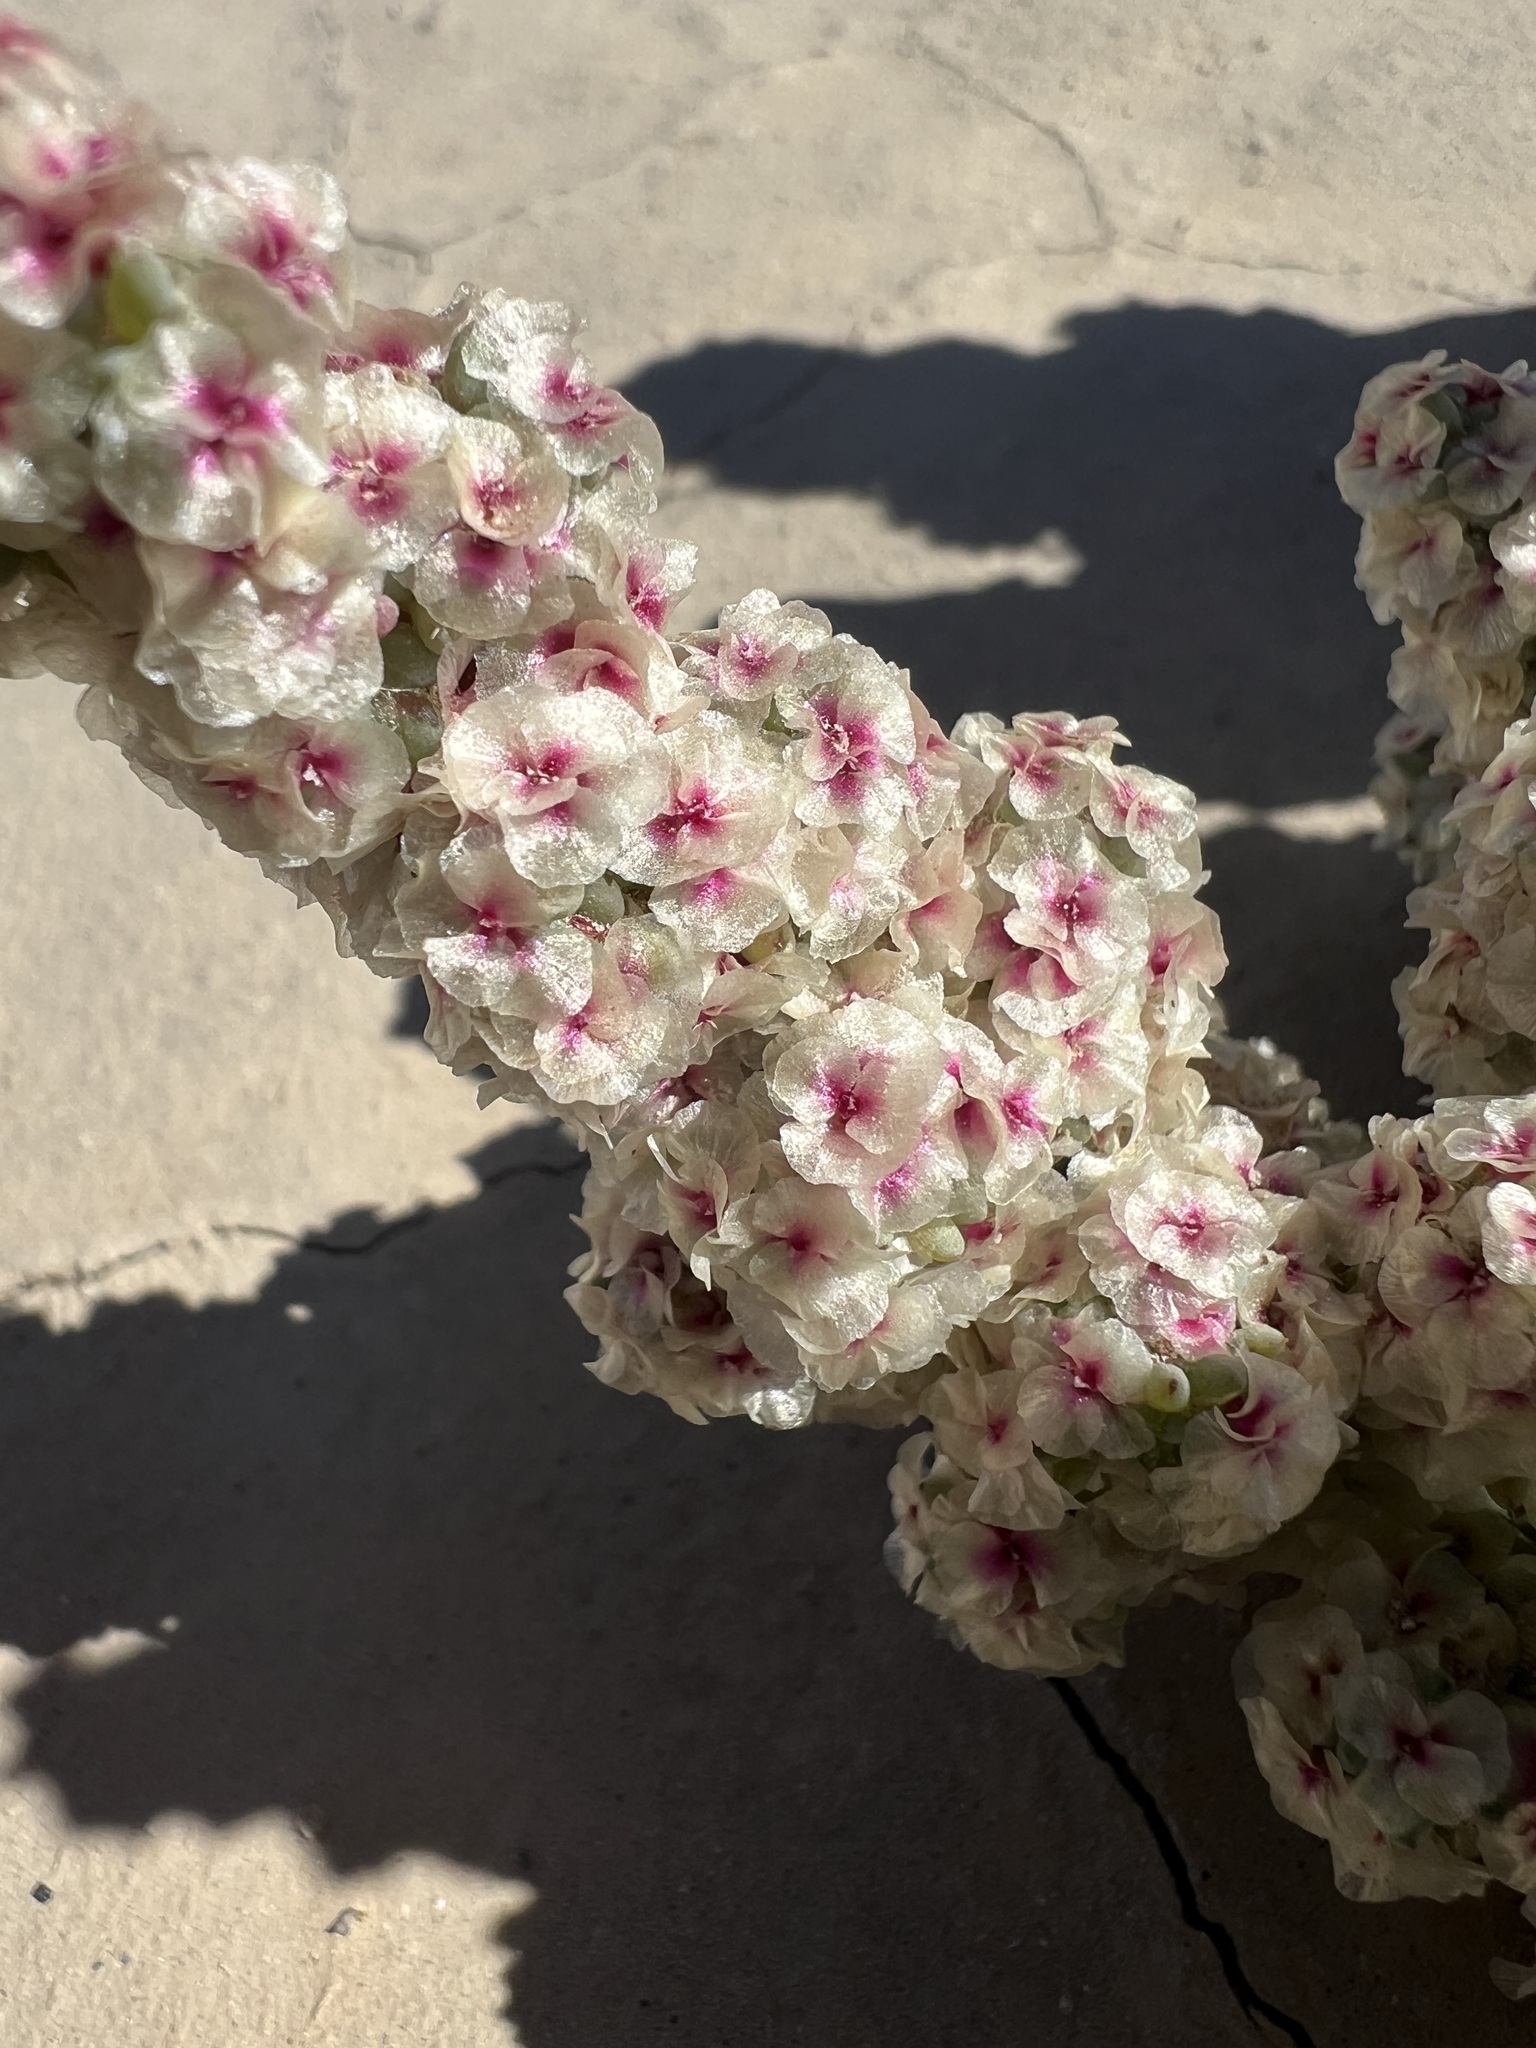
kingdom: Plantae
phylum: Tracheophyta
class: Magnoliopsida
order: Caryophyllales
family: Amaranthaceae
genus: Halogeton
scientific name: Halogeton glomeratus
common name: Saltlover
